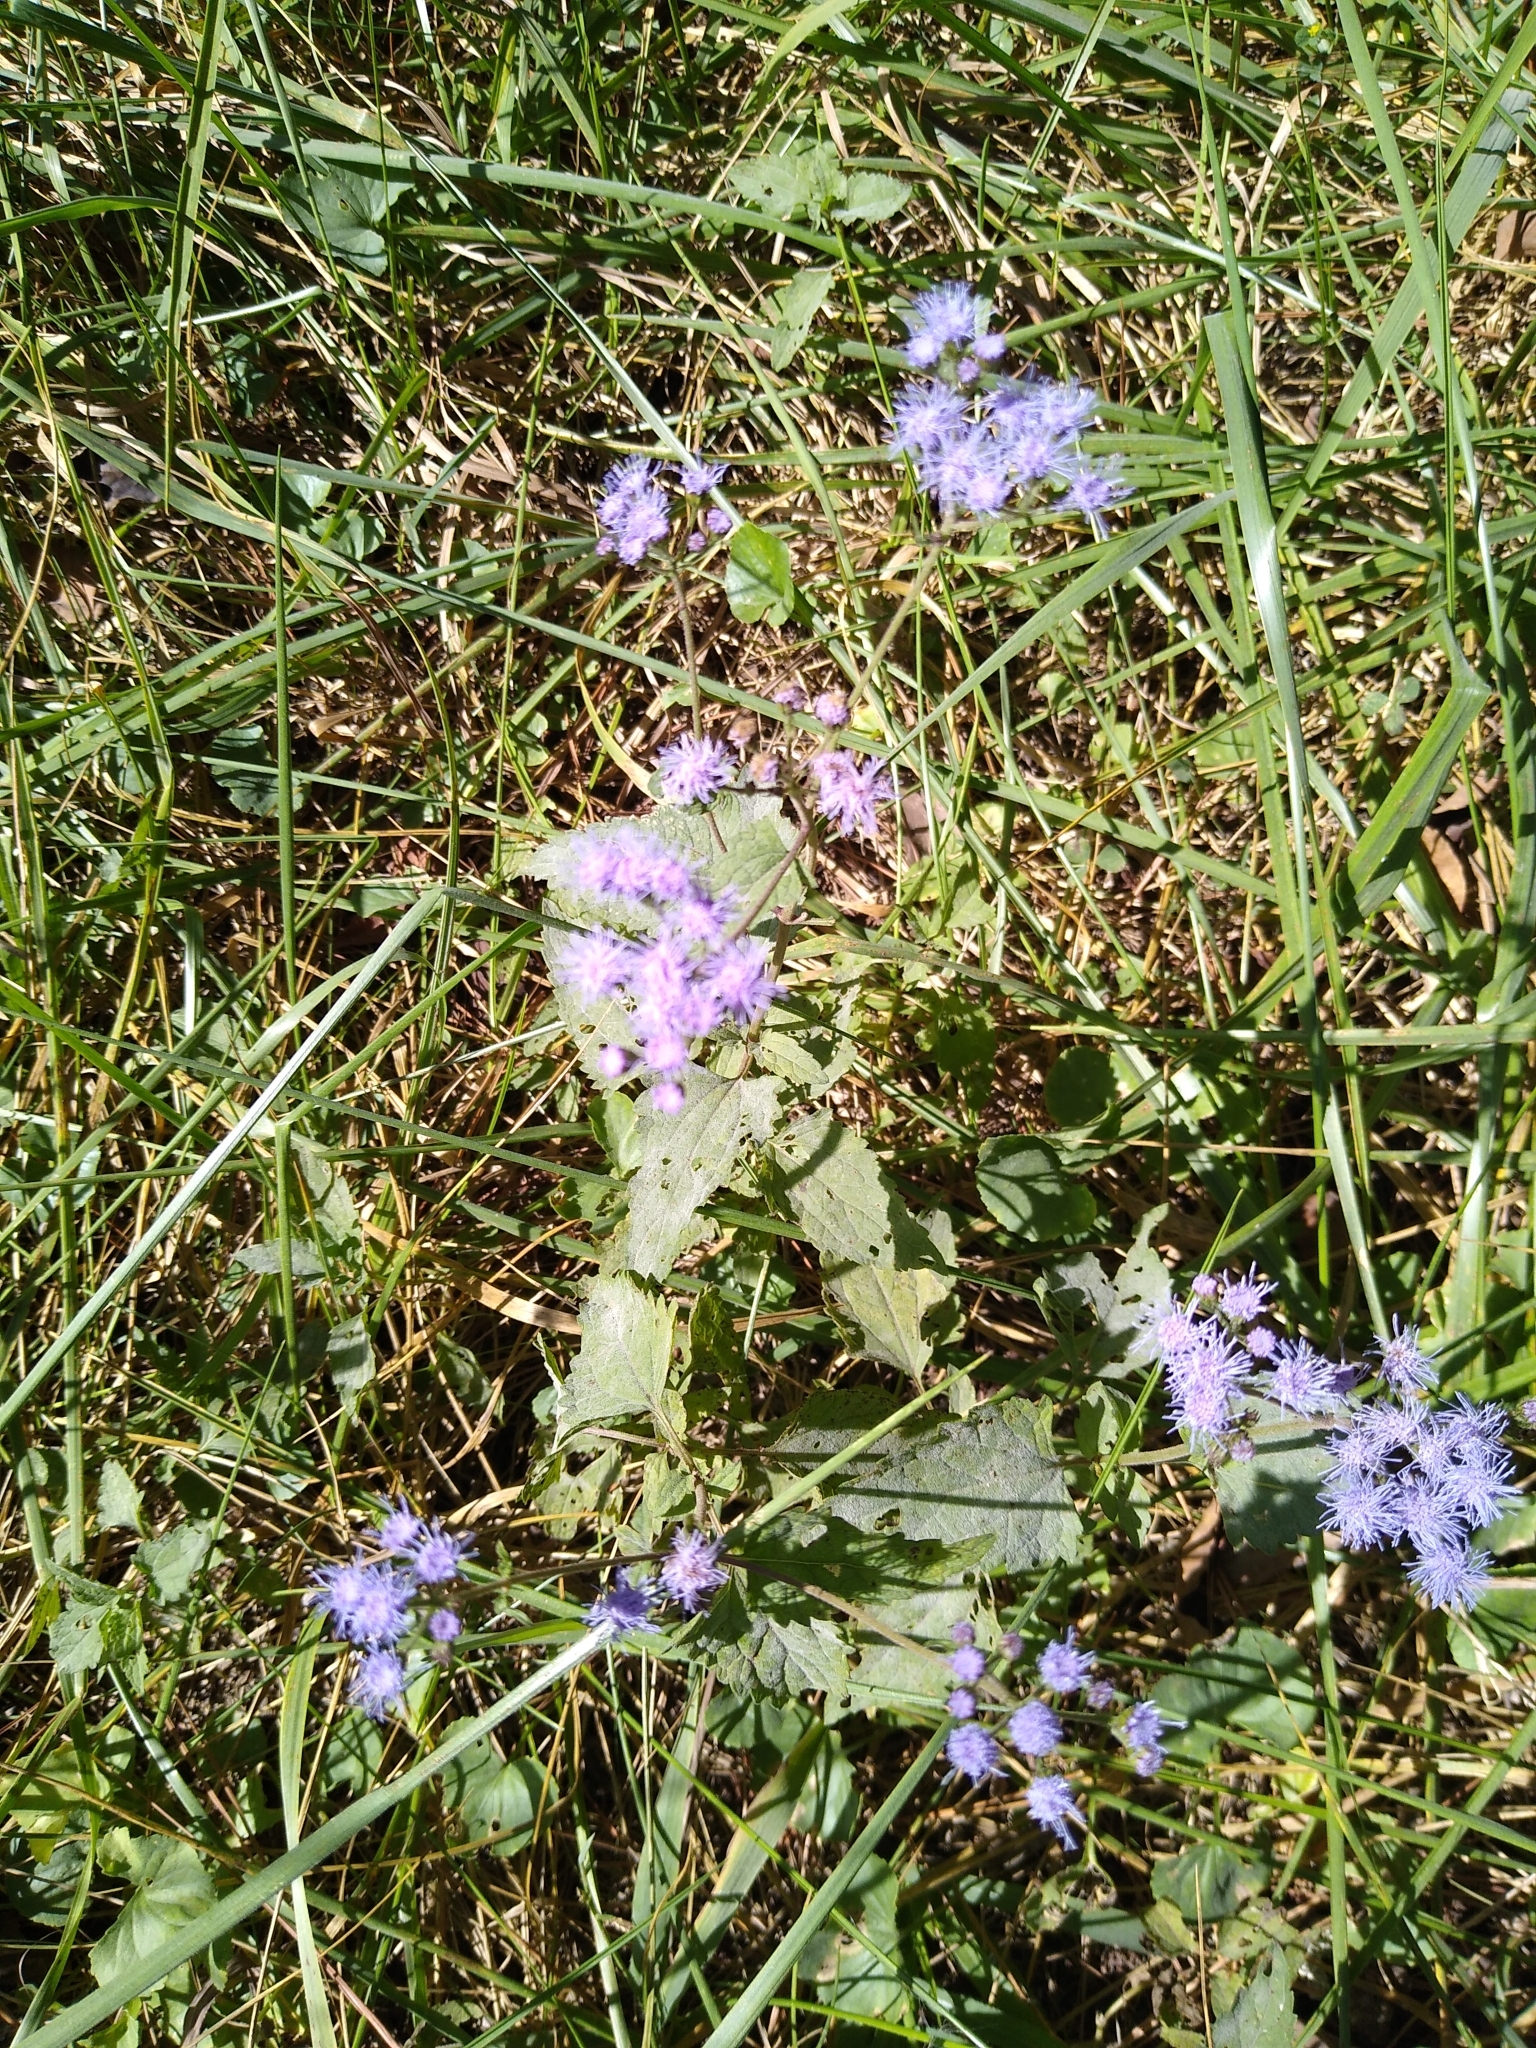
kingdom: Plantae
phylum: Tracheophyta
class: Magnoliopsida
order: Asterales
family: Asteraceae
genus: Conoclinium
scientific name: Conoclinium coelestinum
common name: Blue mistflower
